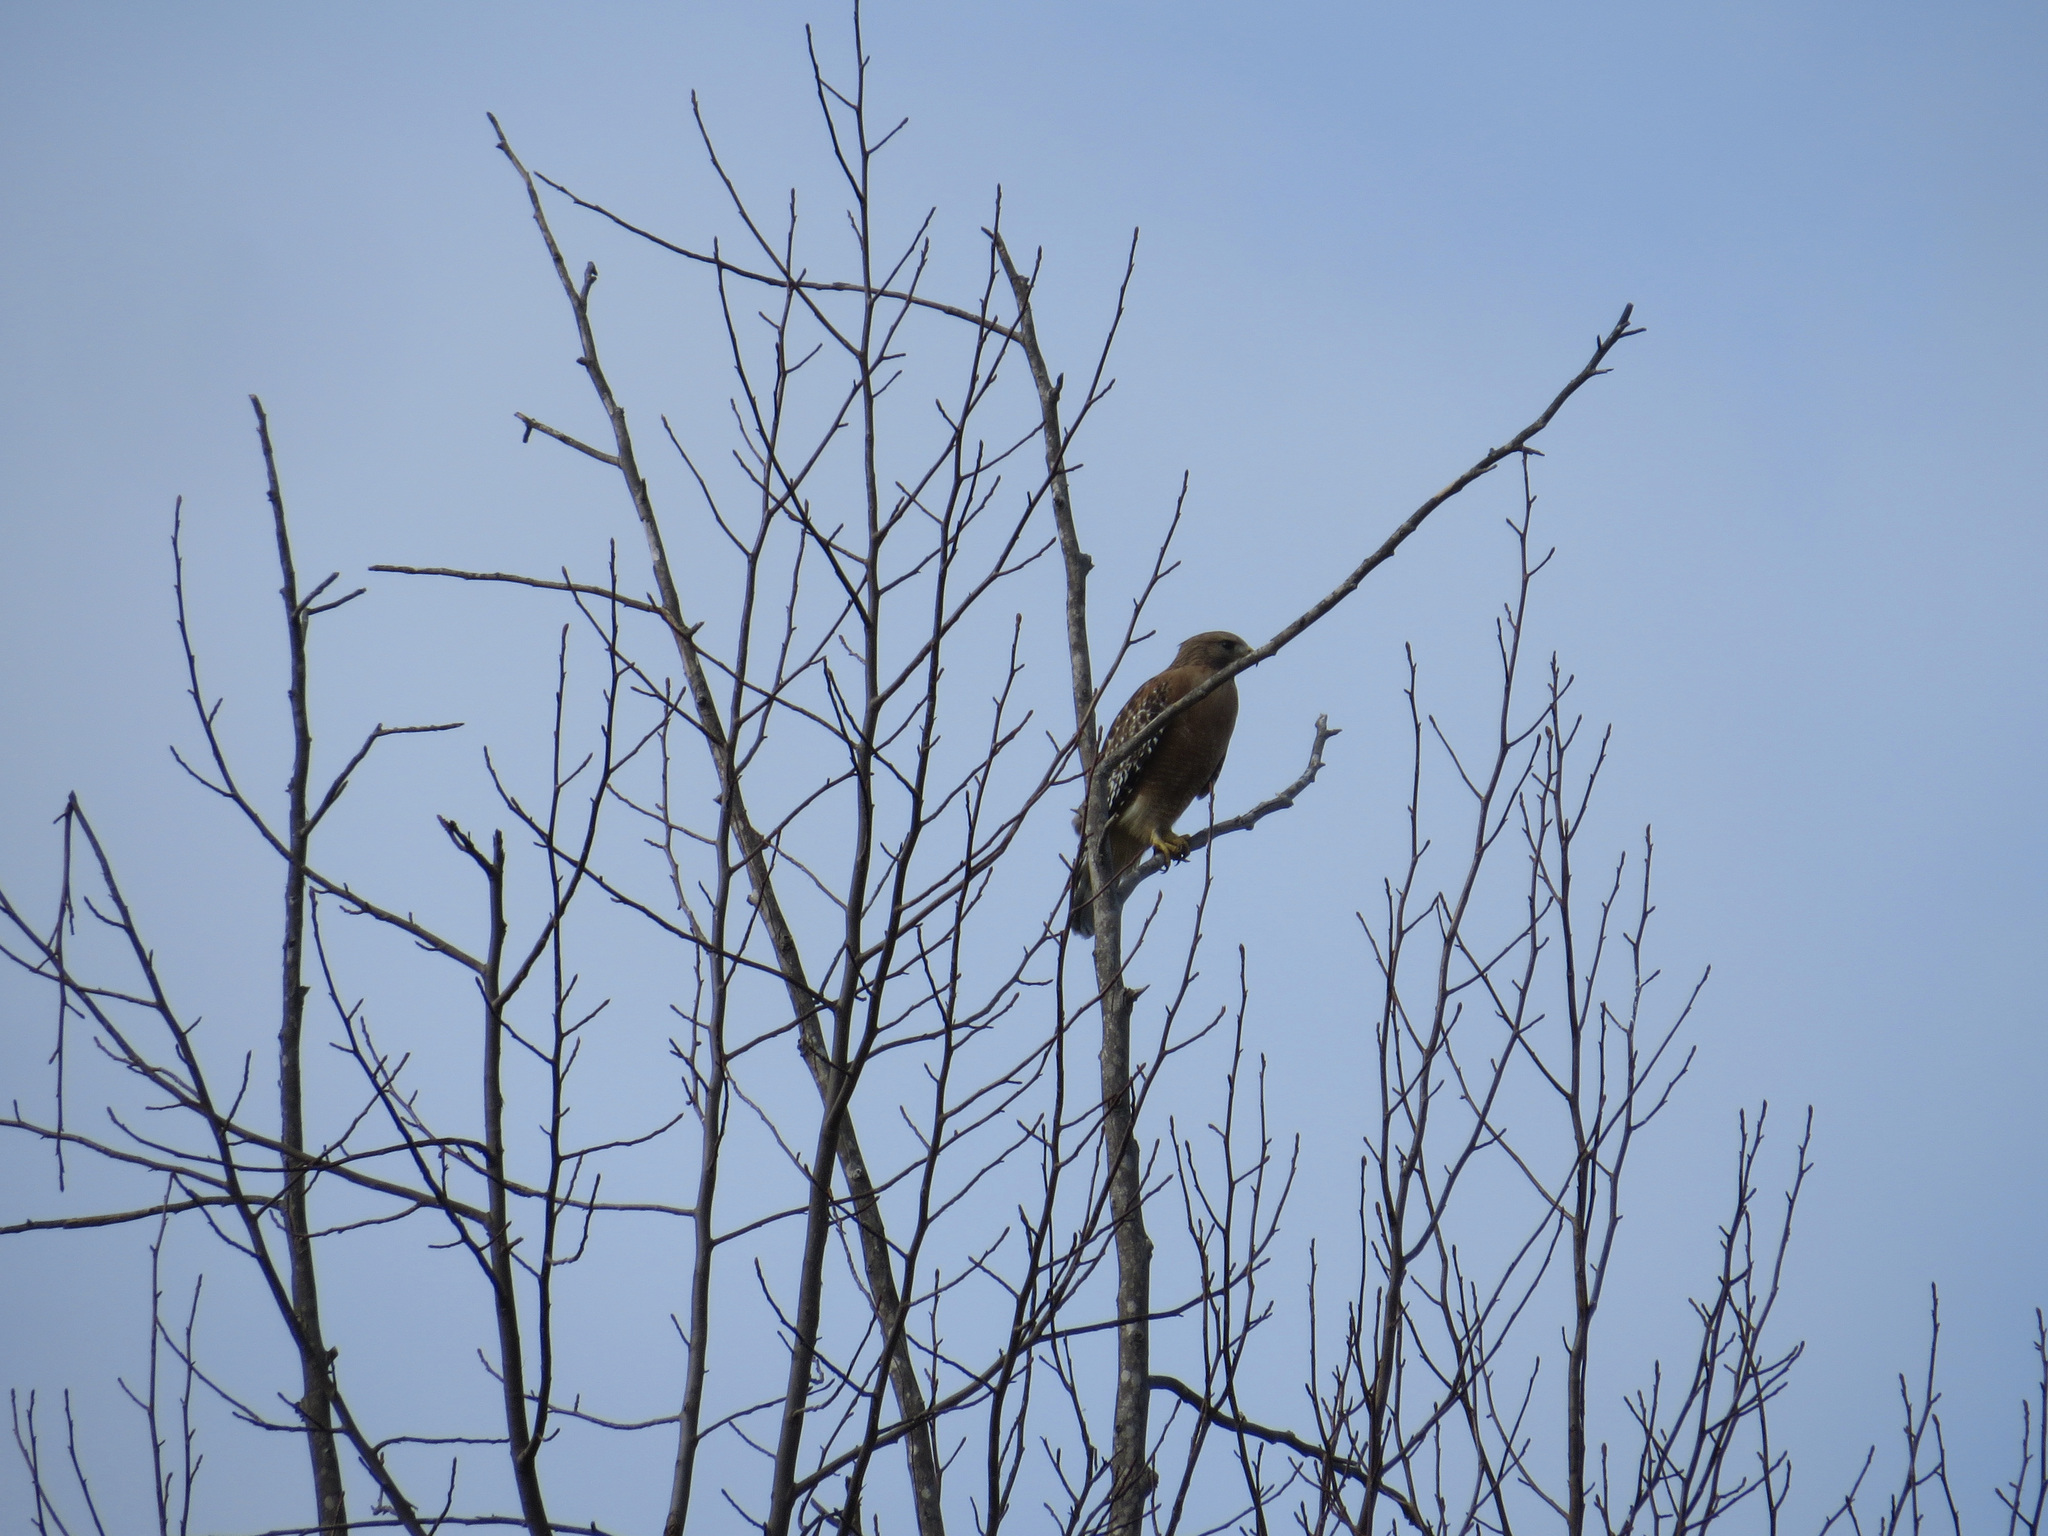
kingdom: Animalia
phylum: Chordata
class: Aves
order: Accipitriformes
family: Accipitridae
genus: Buteo
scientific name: Buteo lineatus
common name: Red-shouldered hawk
